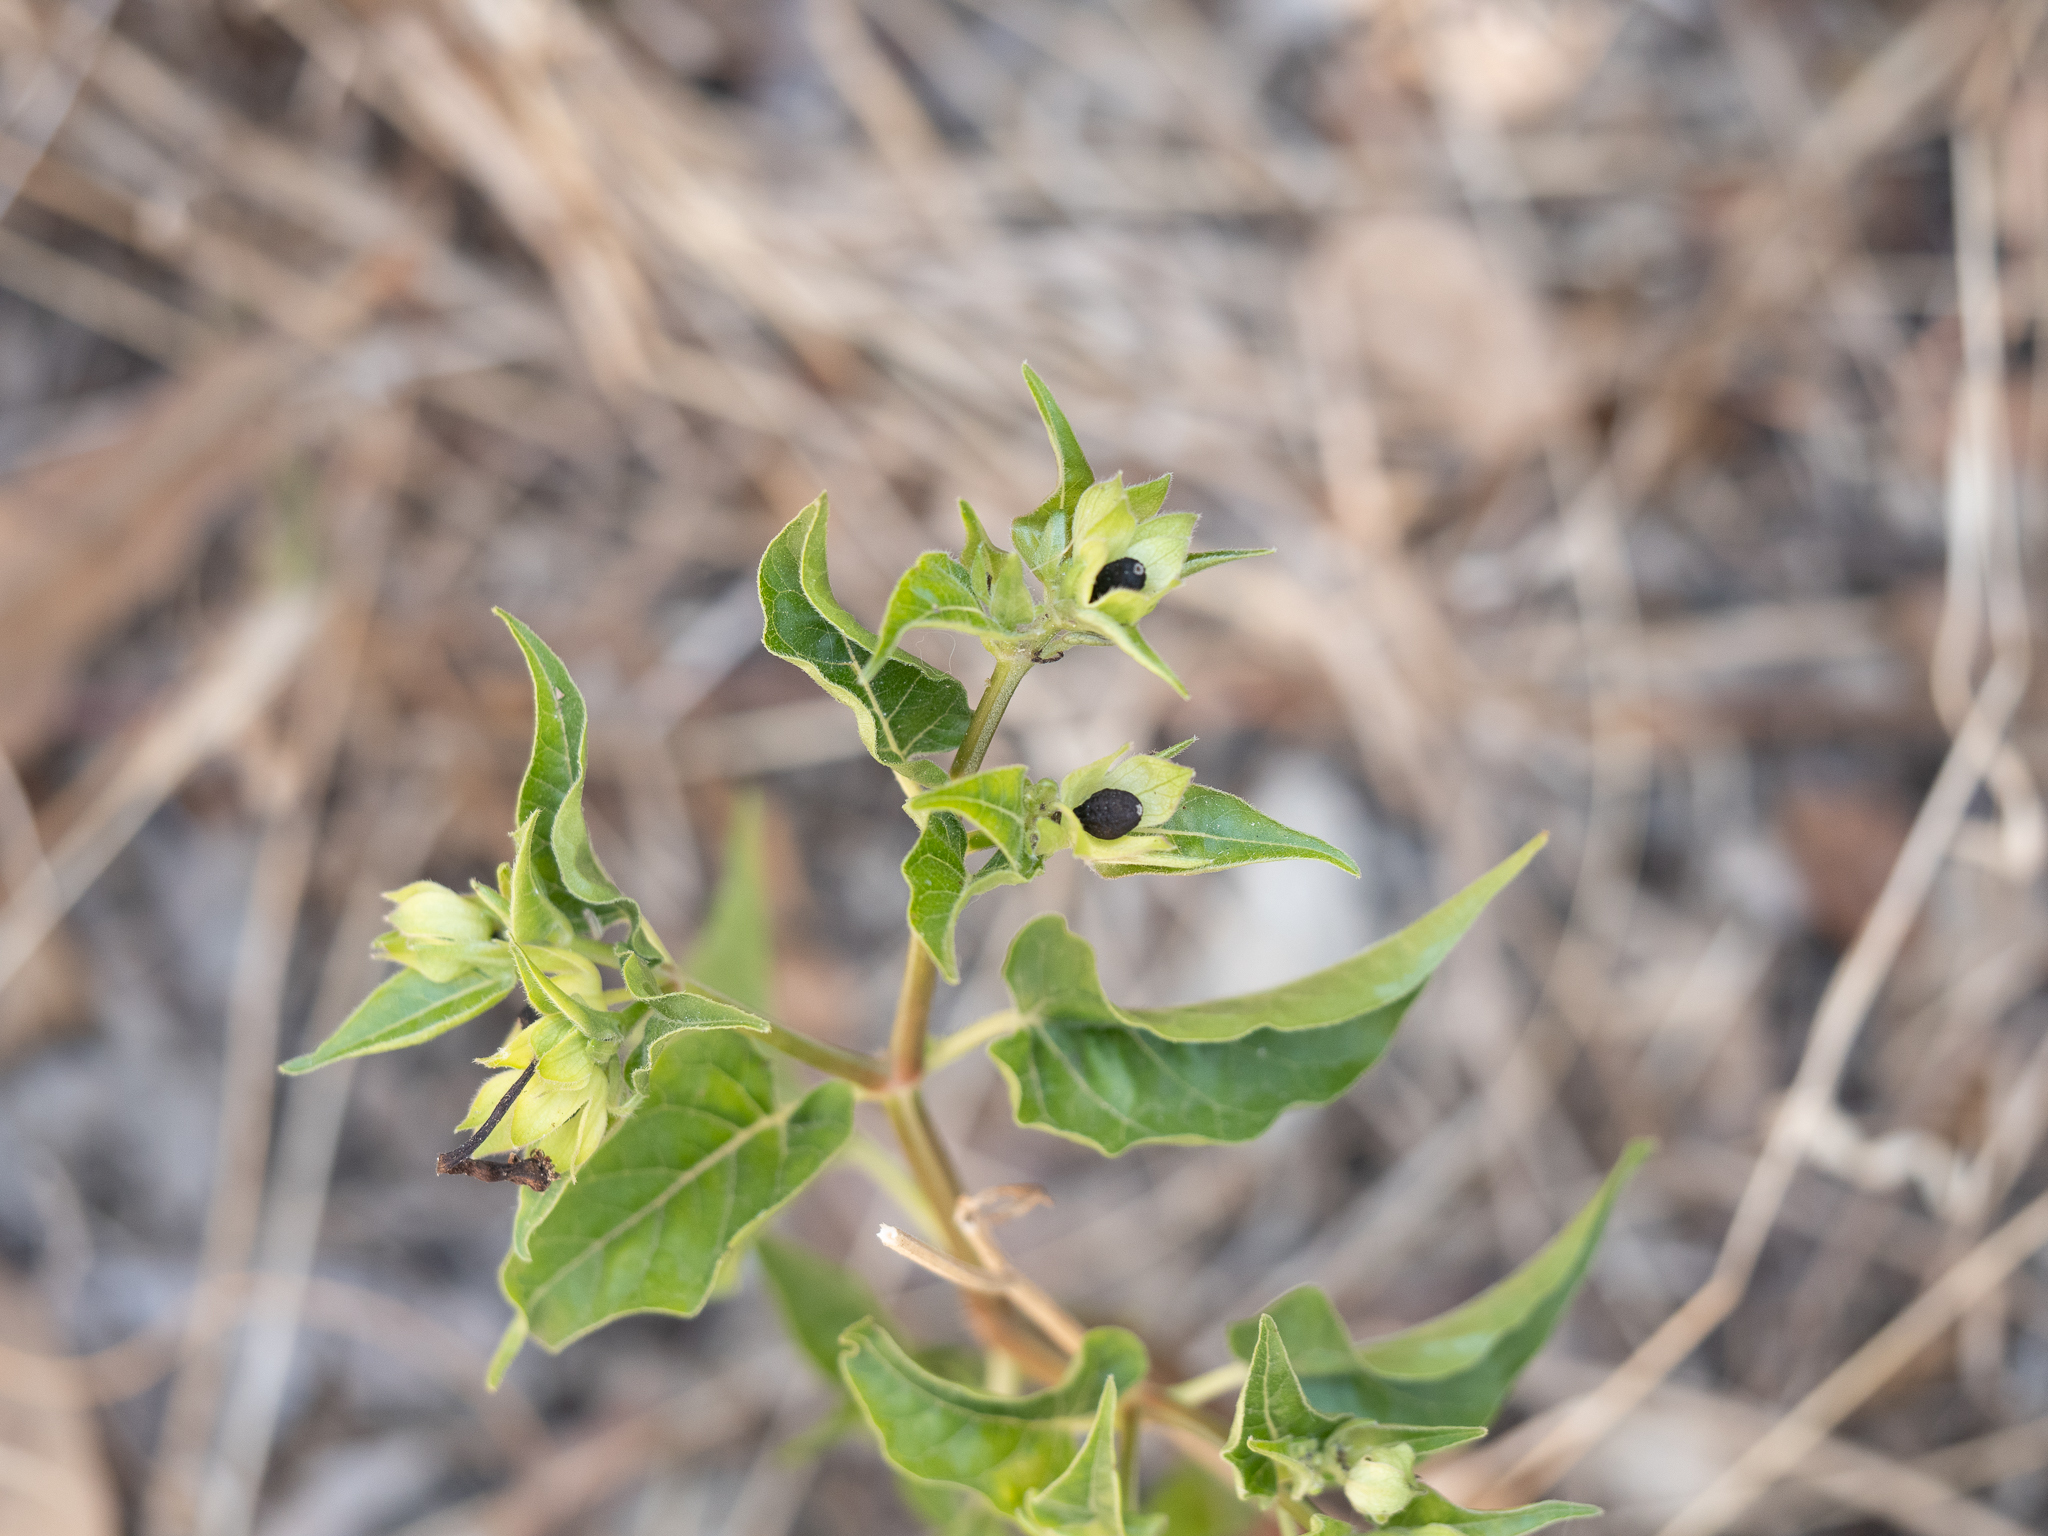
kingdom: Plantae
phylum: Tracheophyta
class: Magnoliopsida
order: Caryophyllales
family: Nyctaginaceae
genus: Mirabilis
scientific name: Mirabilis jalapa
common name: Marvel-of-peru
